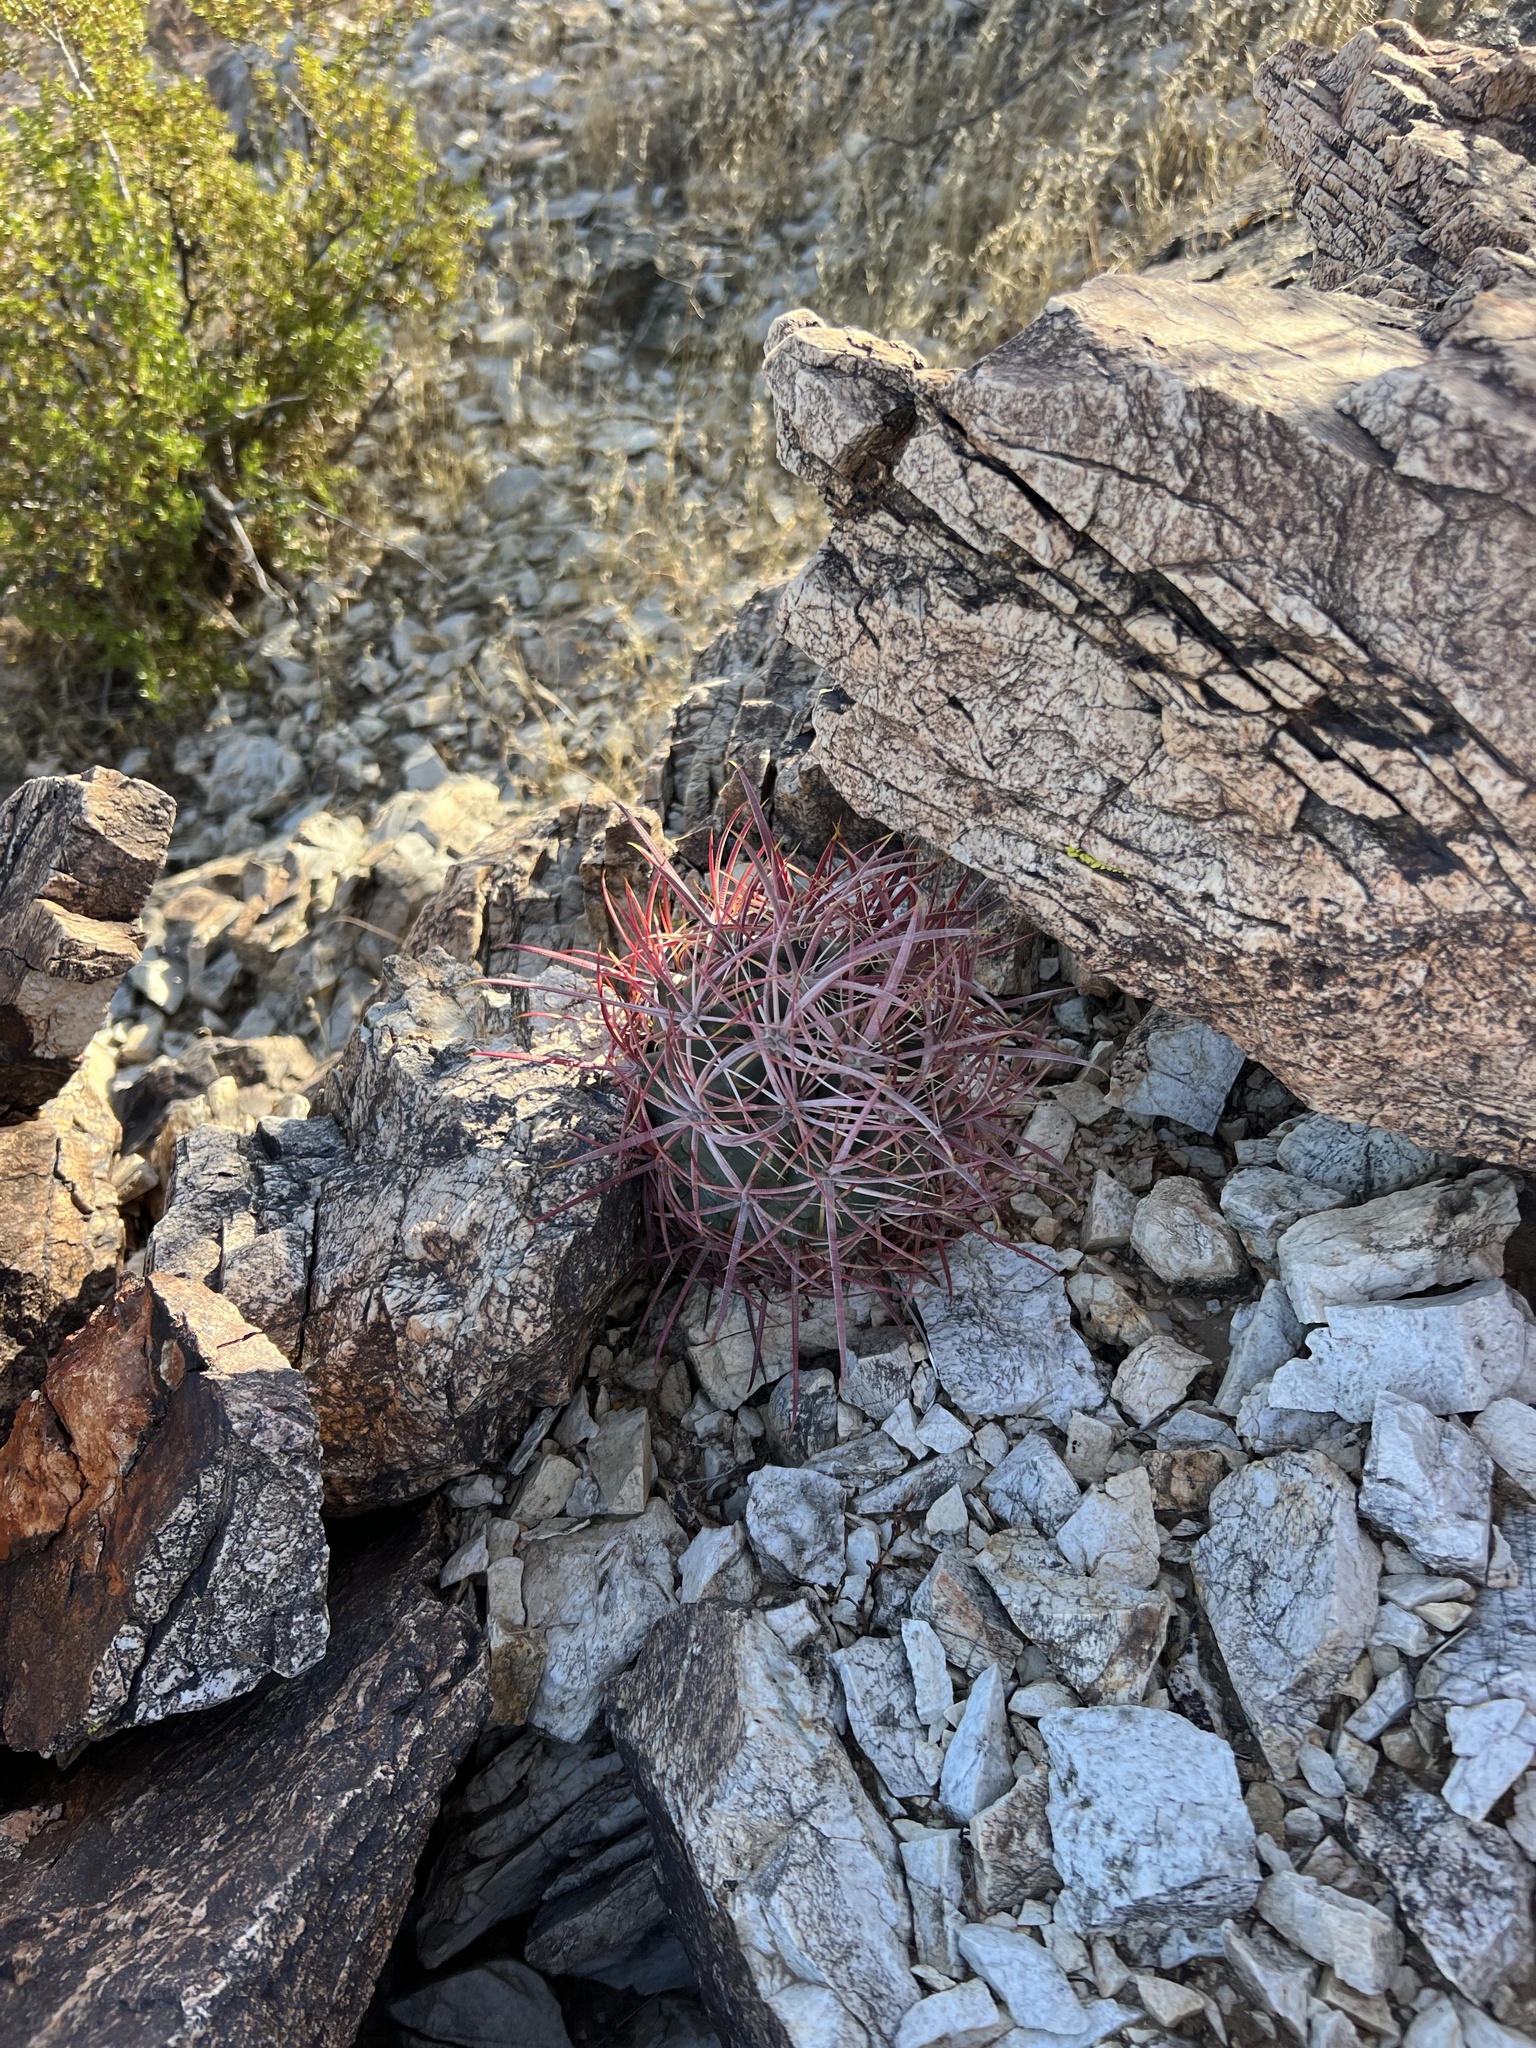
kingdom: Plantae
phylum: Tracheophyta
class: Magnoliopsida
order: Caryophyllales
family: Cactaceae
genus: Ferocactus
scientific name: Ferocactus cylindraceus
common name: California barrel cactus
